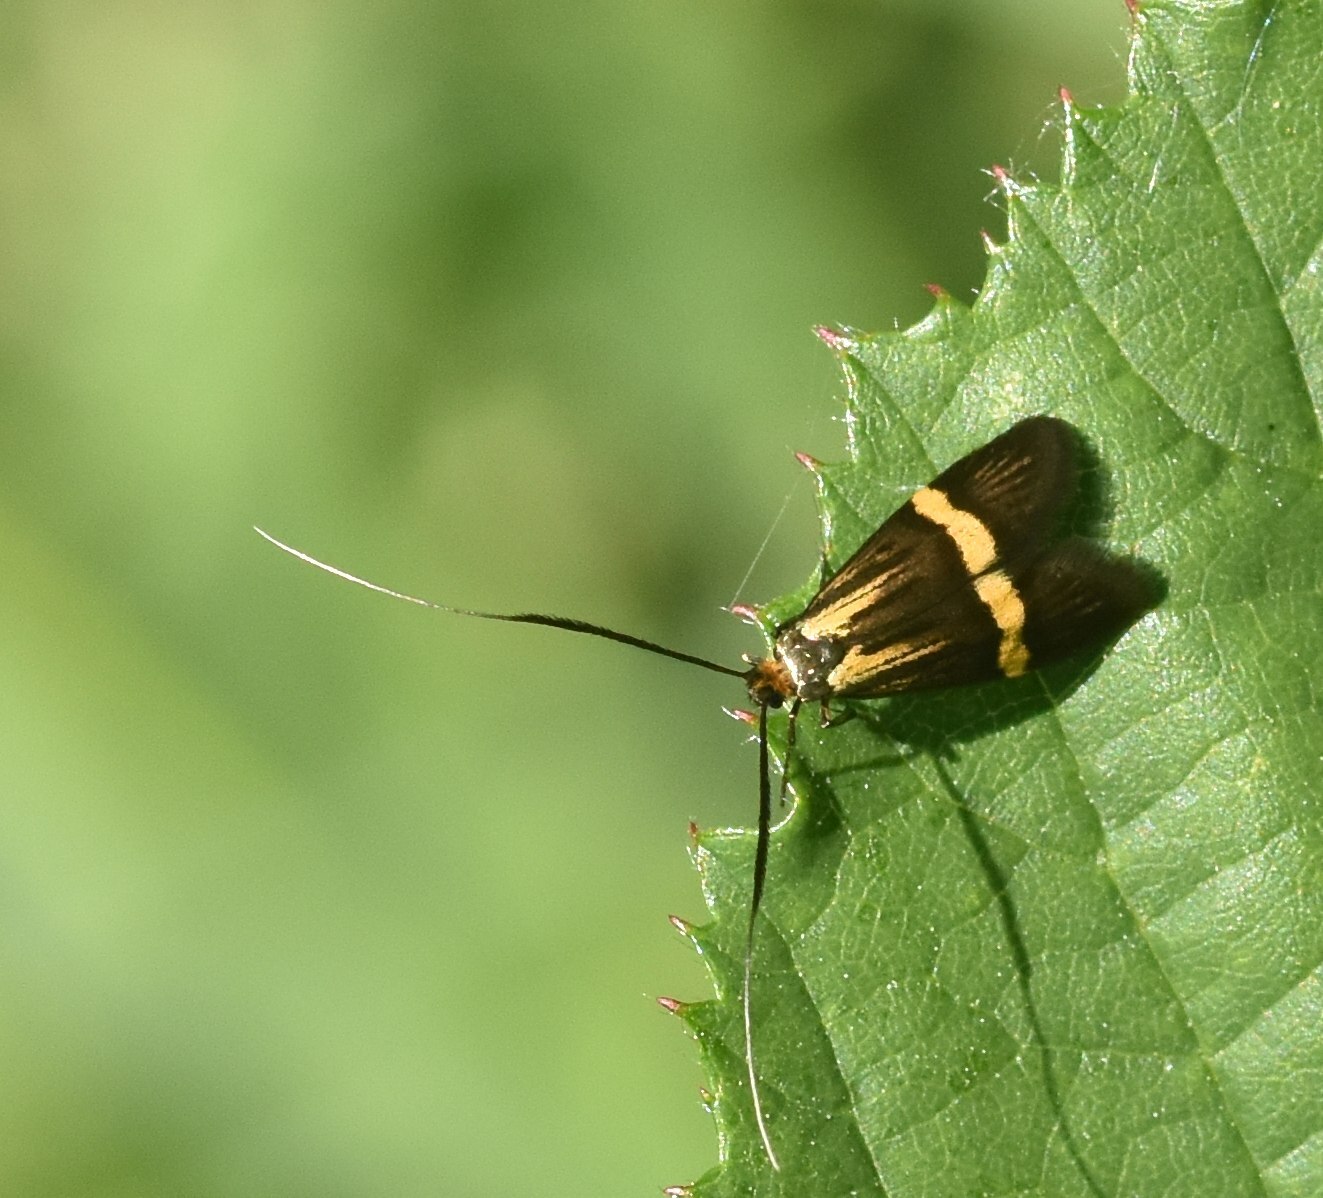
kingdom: Animalia
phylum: Arthropoda
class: Insecta
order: Lepidoptera
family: Adelidae
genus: Nemophora
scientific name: Nemophora degeerella
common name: Yellow-barred long-horn
